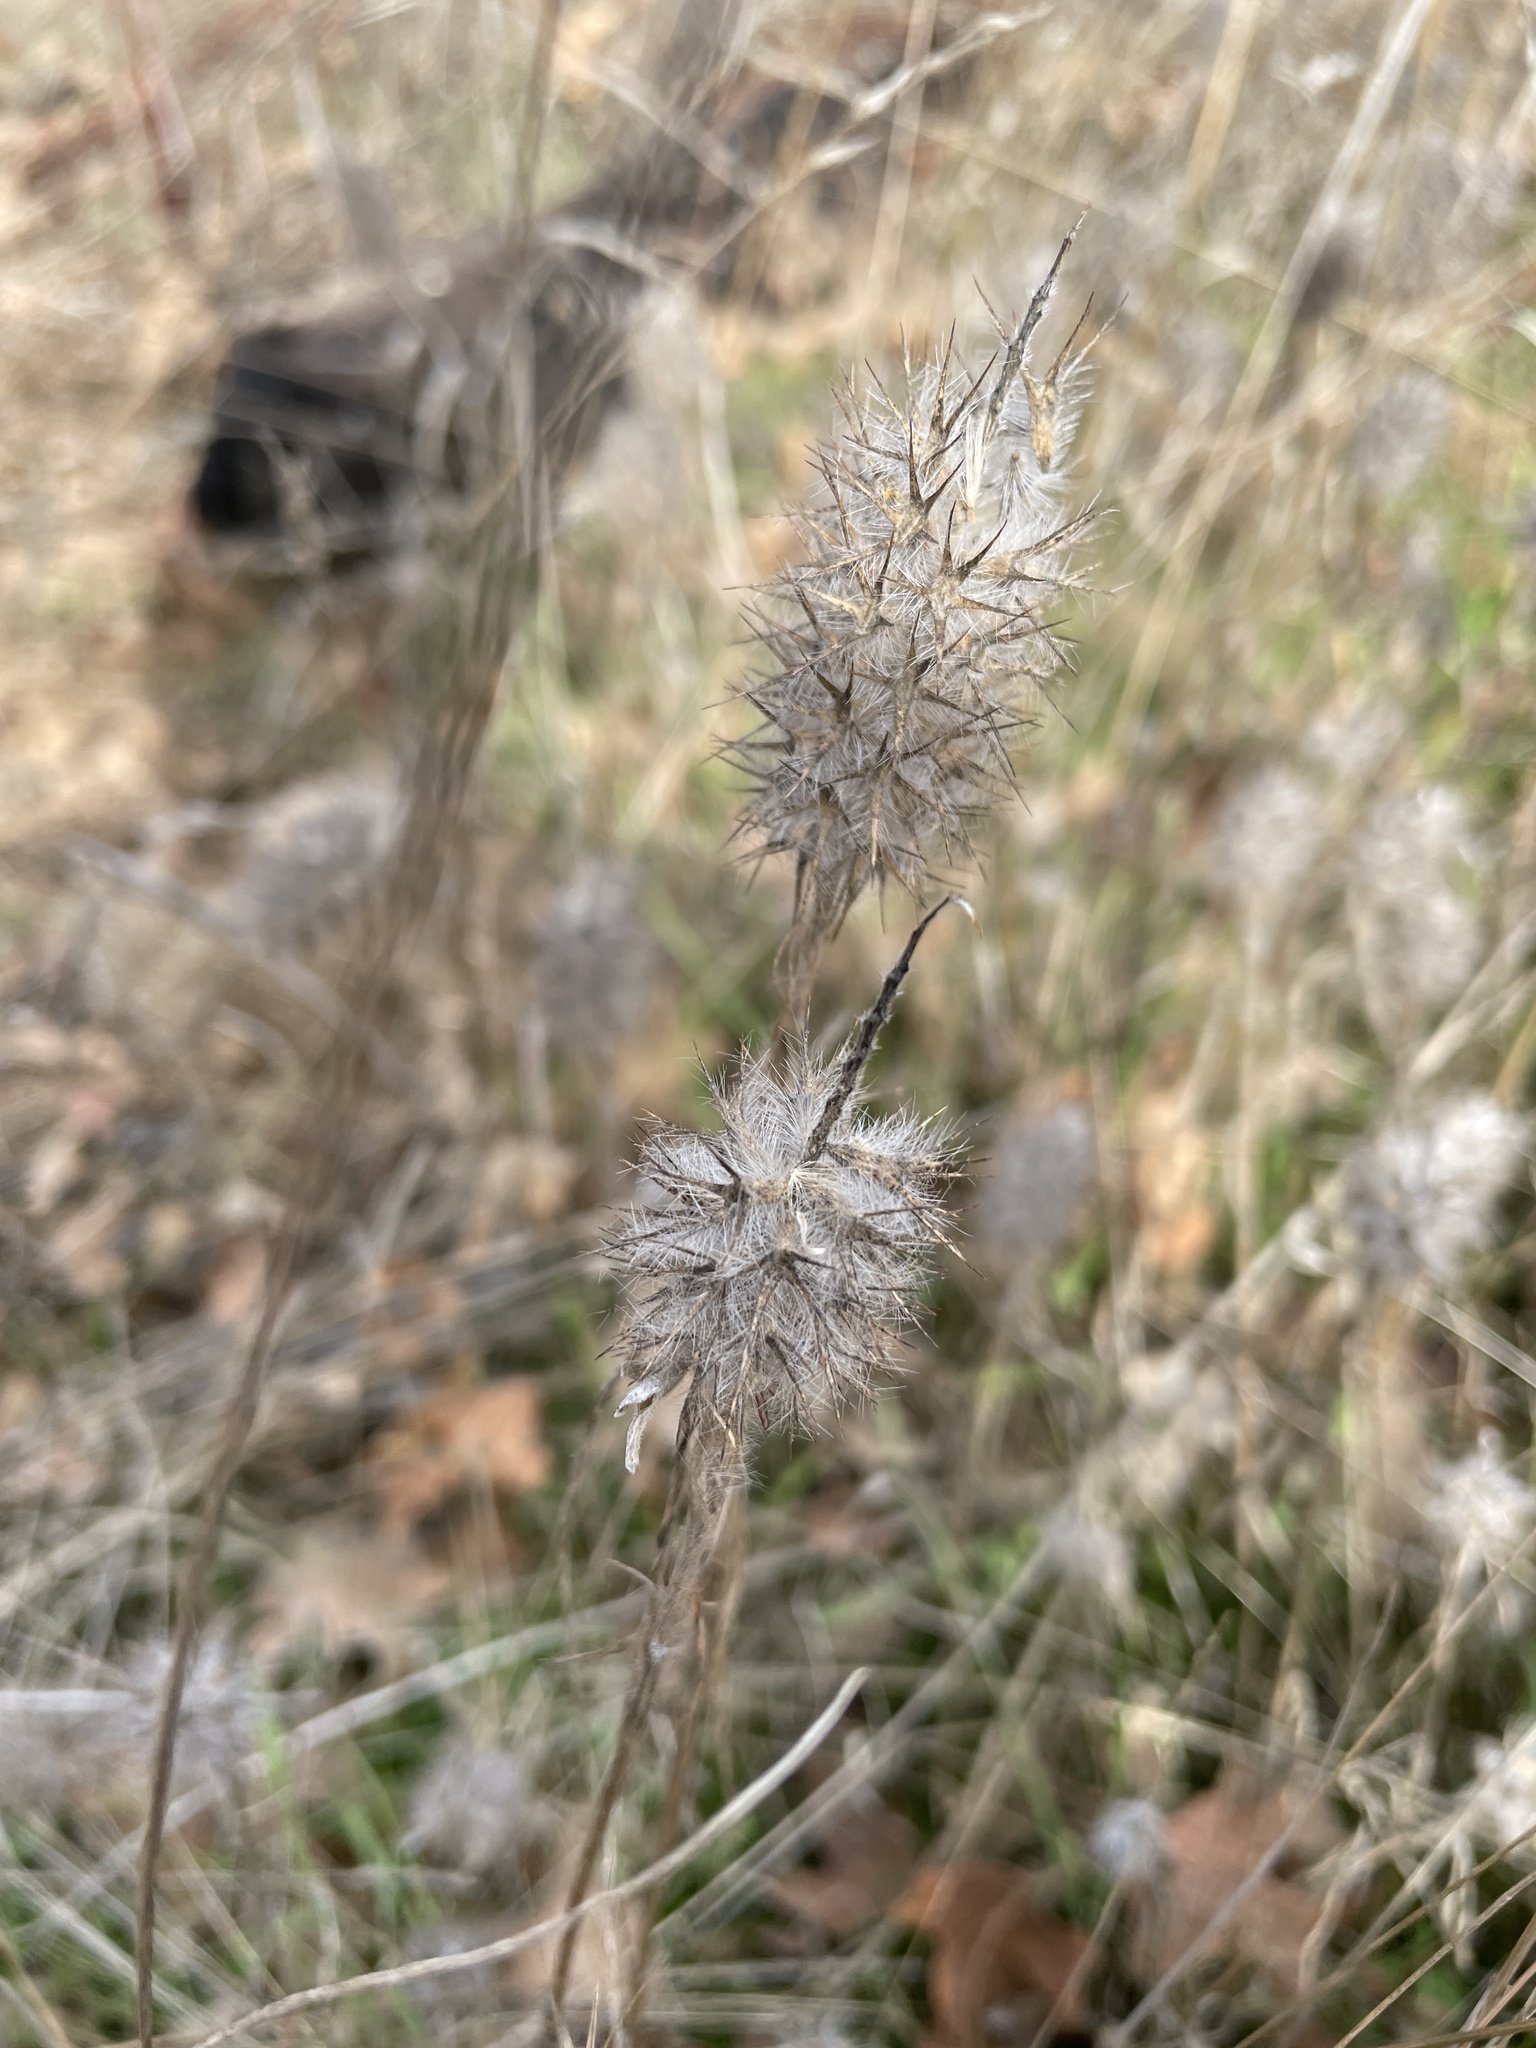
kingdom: Plantae
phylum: Tracheophyta
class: Magnoliopsida
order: Fabales
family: Fabaceae
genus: Trifolium
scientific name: Trifolium angustifolium
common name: Narrow clover
